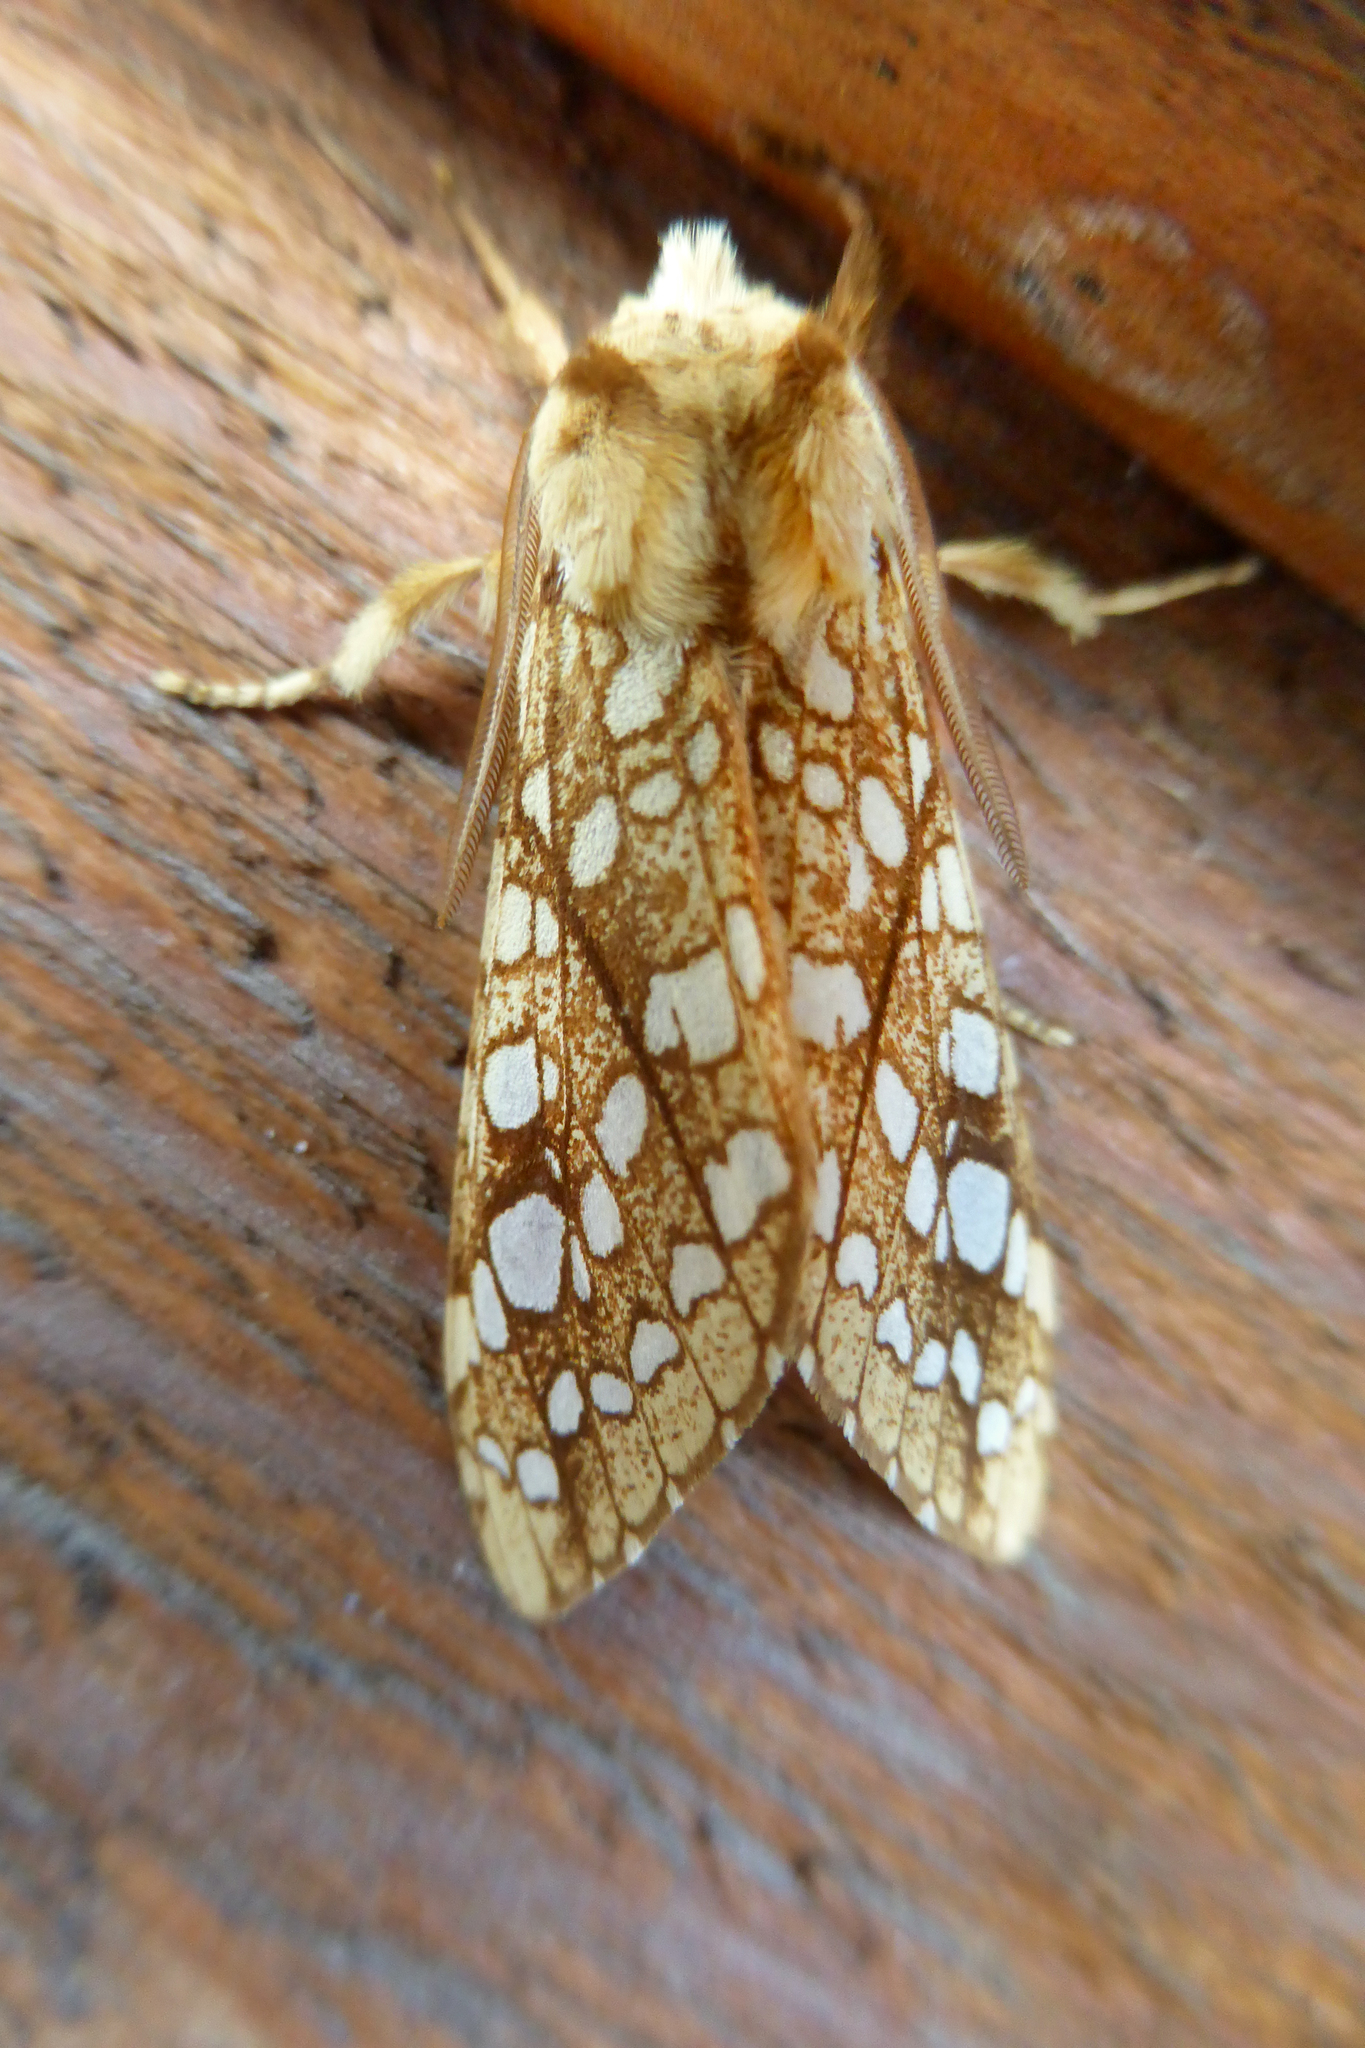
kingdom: Animalia
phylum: Arthropoda
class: Insecta
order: Lepidoptera
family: Erebidae
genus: Lophocampa
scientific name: Lophocampa caryae
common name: Hickory tussock moth
